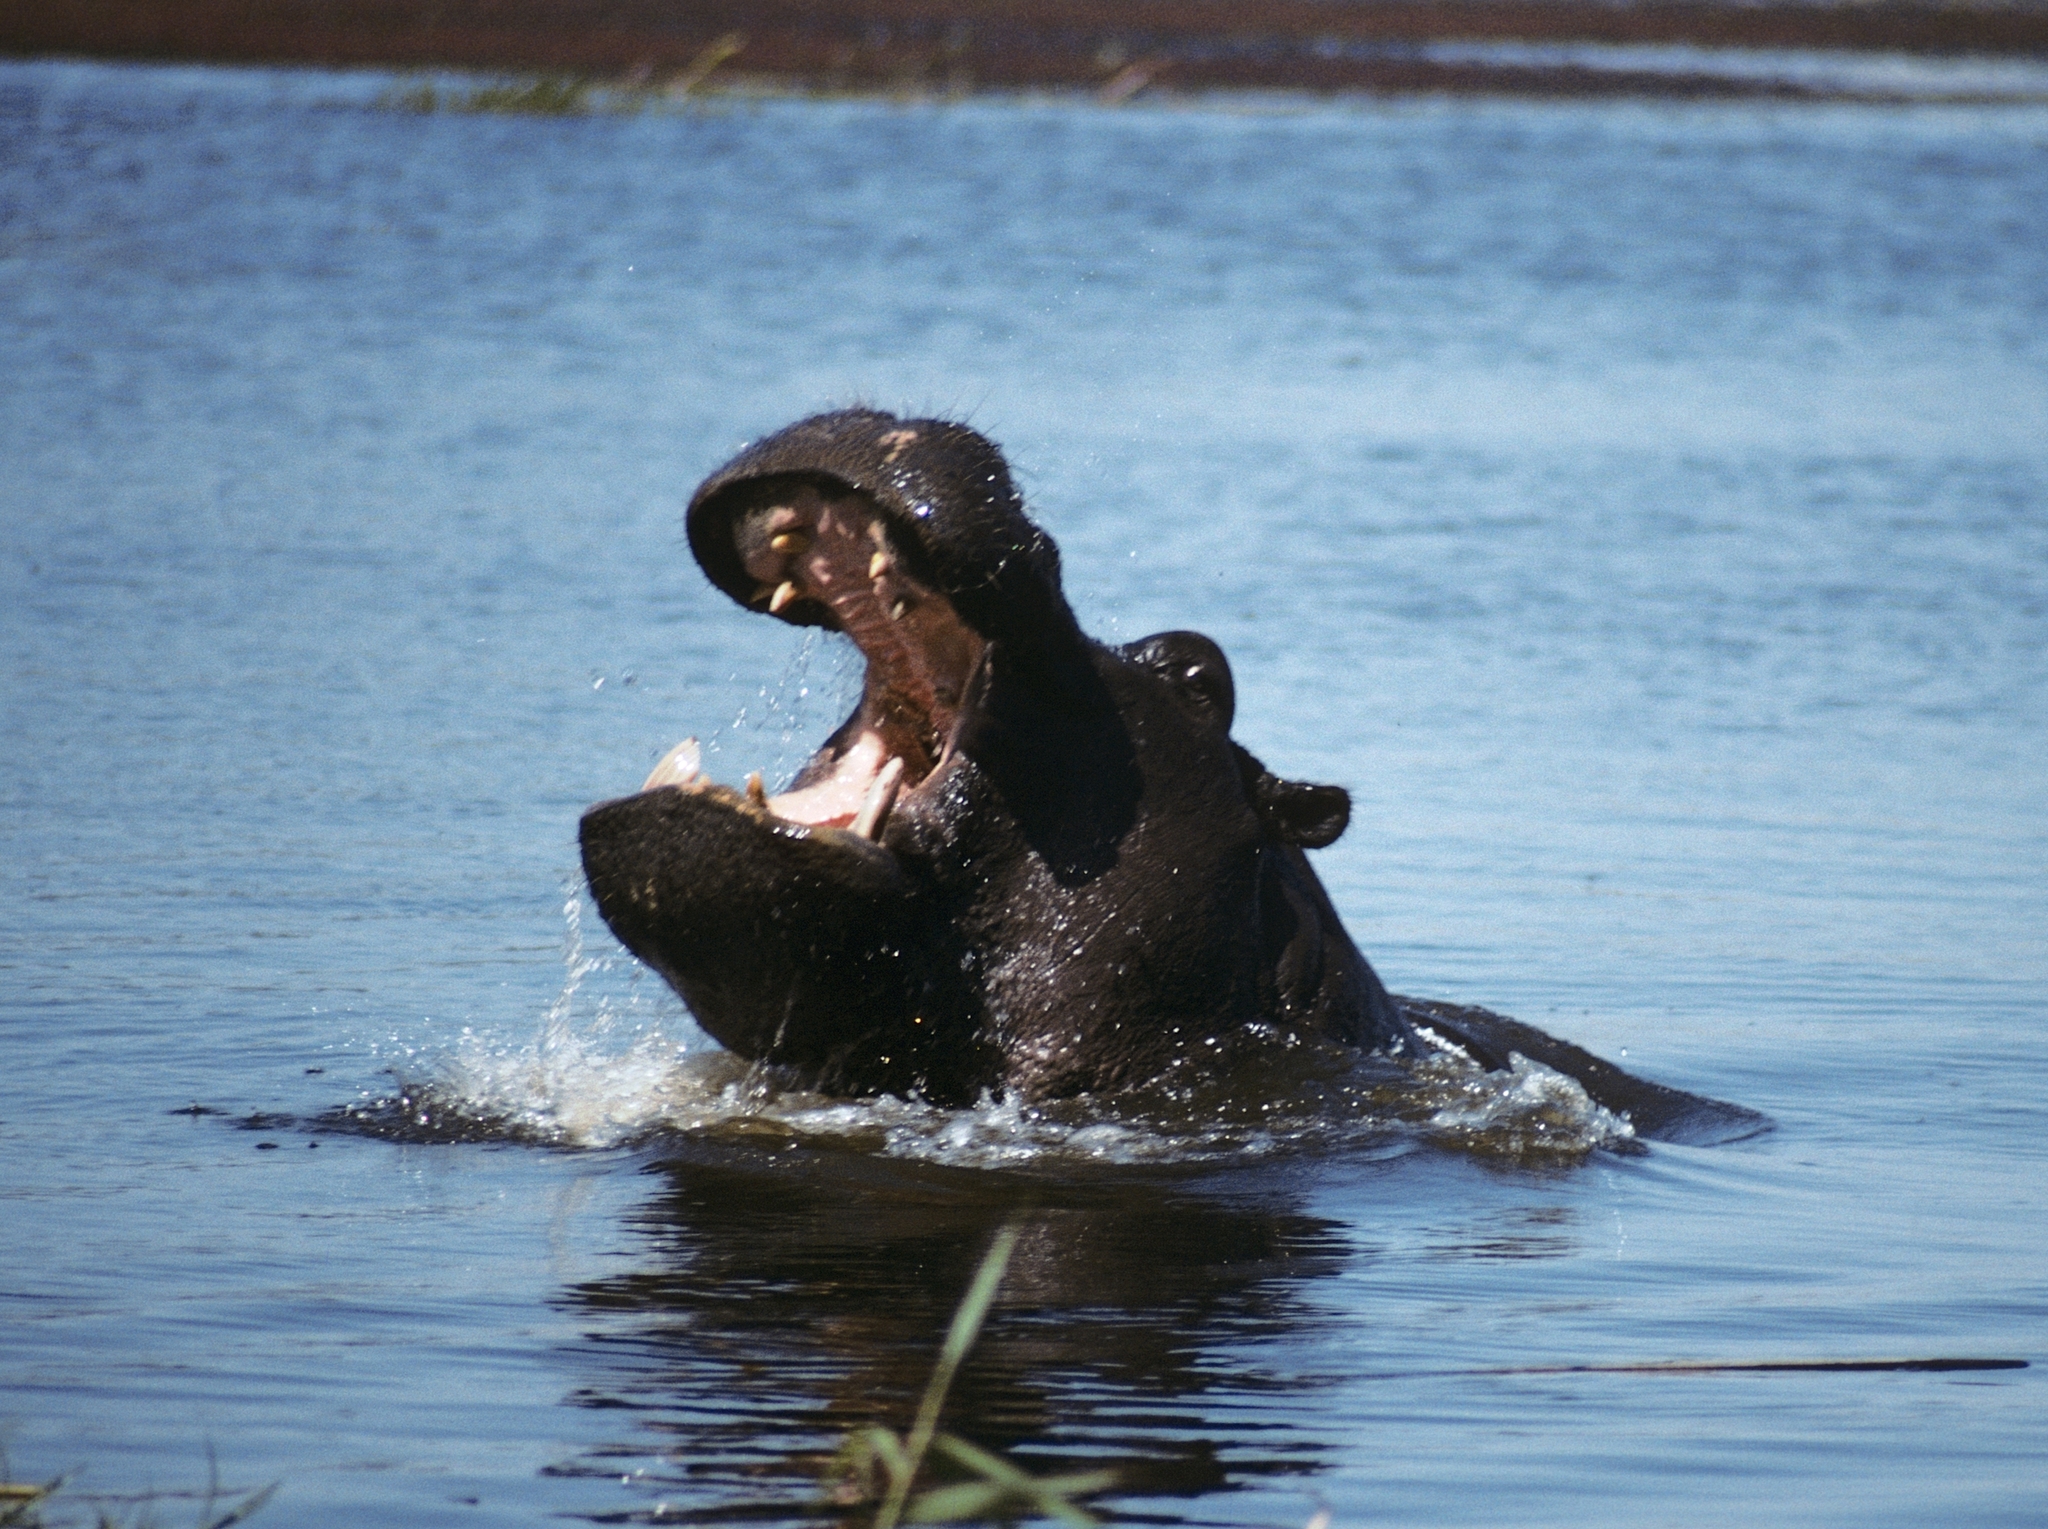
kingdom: Animalia
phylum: Chordata
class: Mammalia
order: Artiodactyla
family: Hippopotamidae
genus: Hippopotamus
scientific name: Hippopotamus amphibius
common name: Common hippopotamus
